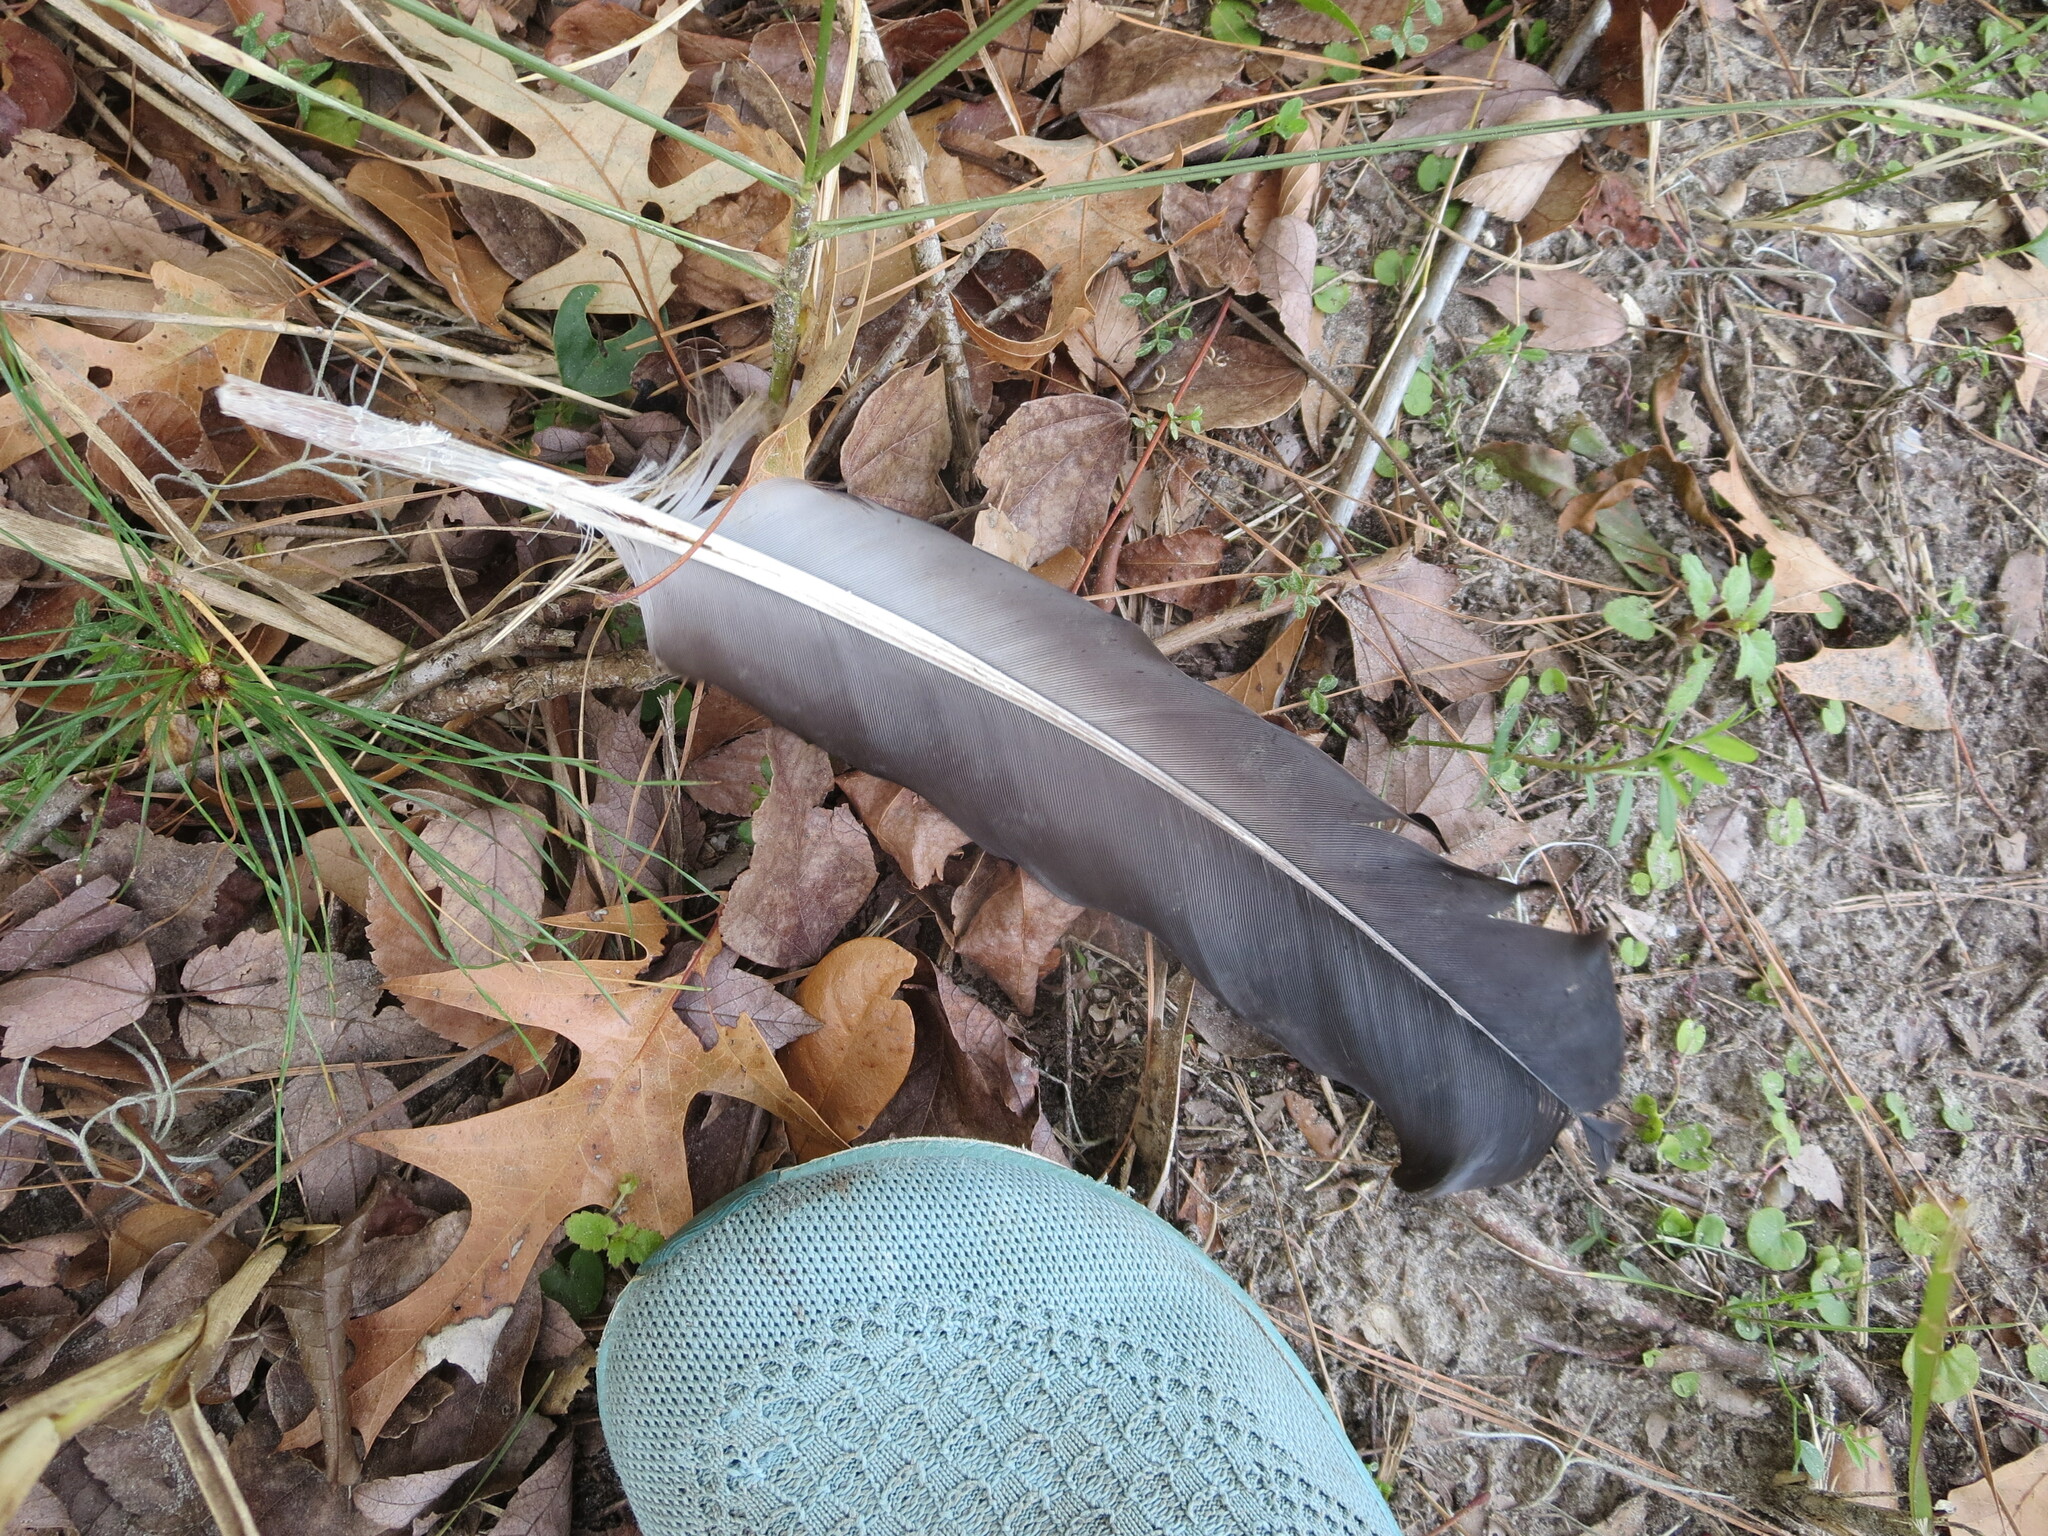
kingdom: Animalia
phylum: Chordata
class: Aves
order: Accipitriformes
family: Cathartidae
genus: Coragyps
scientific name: Coragyps atratus
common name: Black vulture
